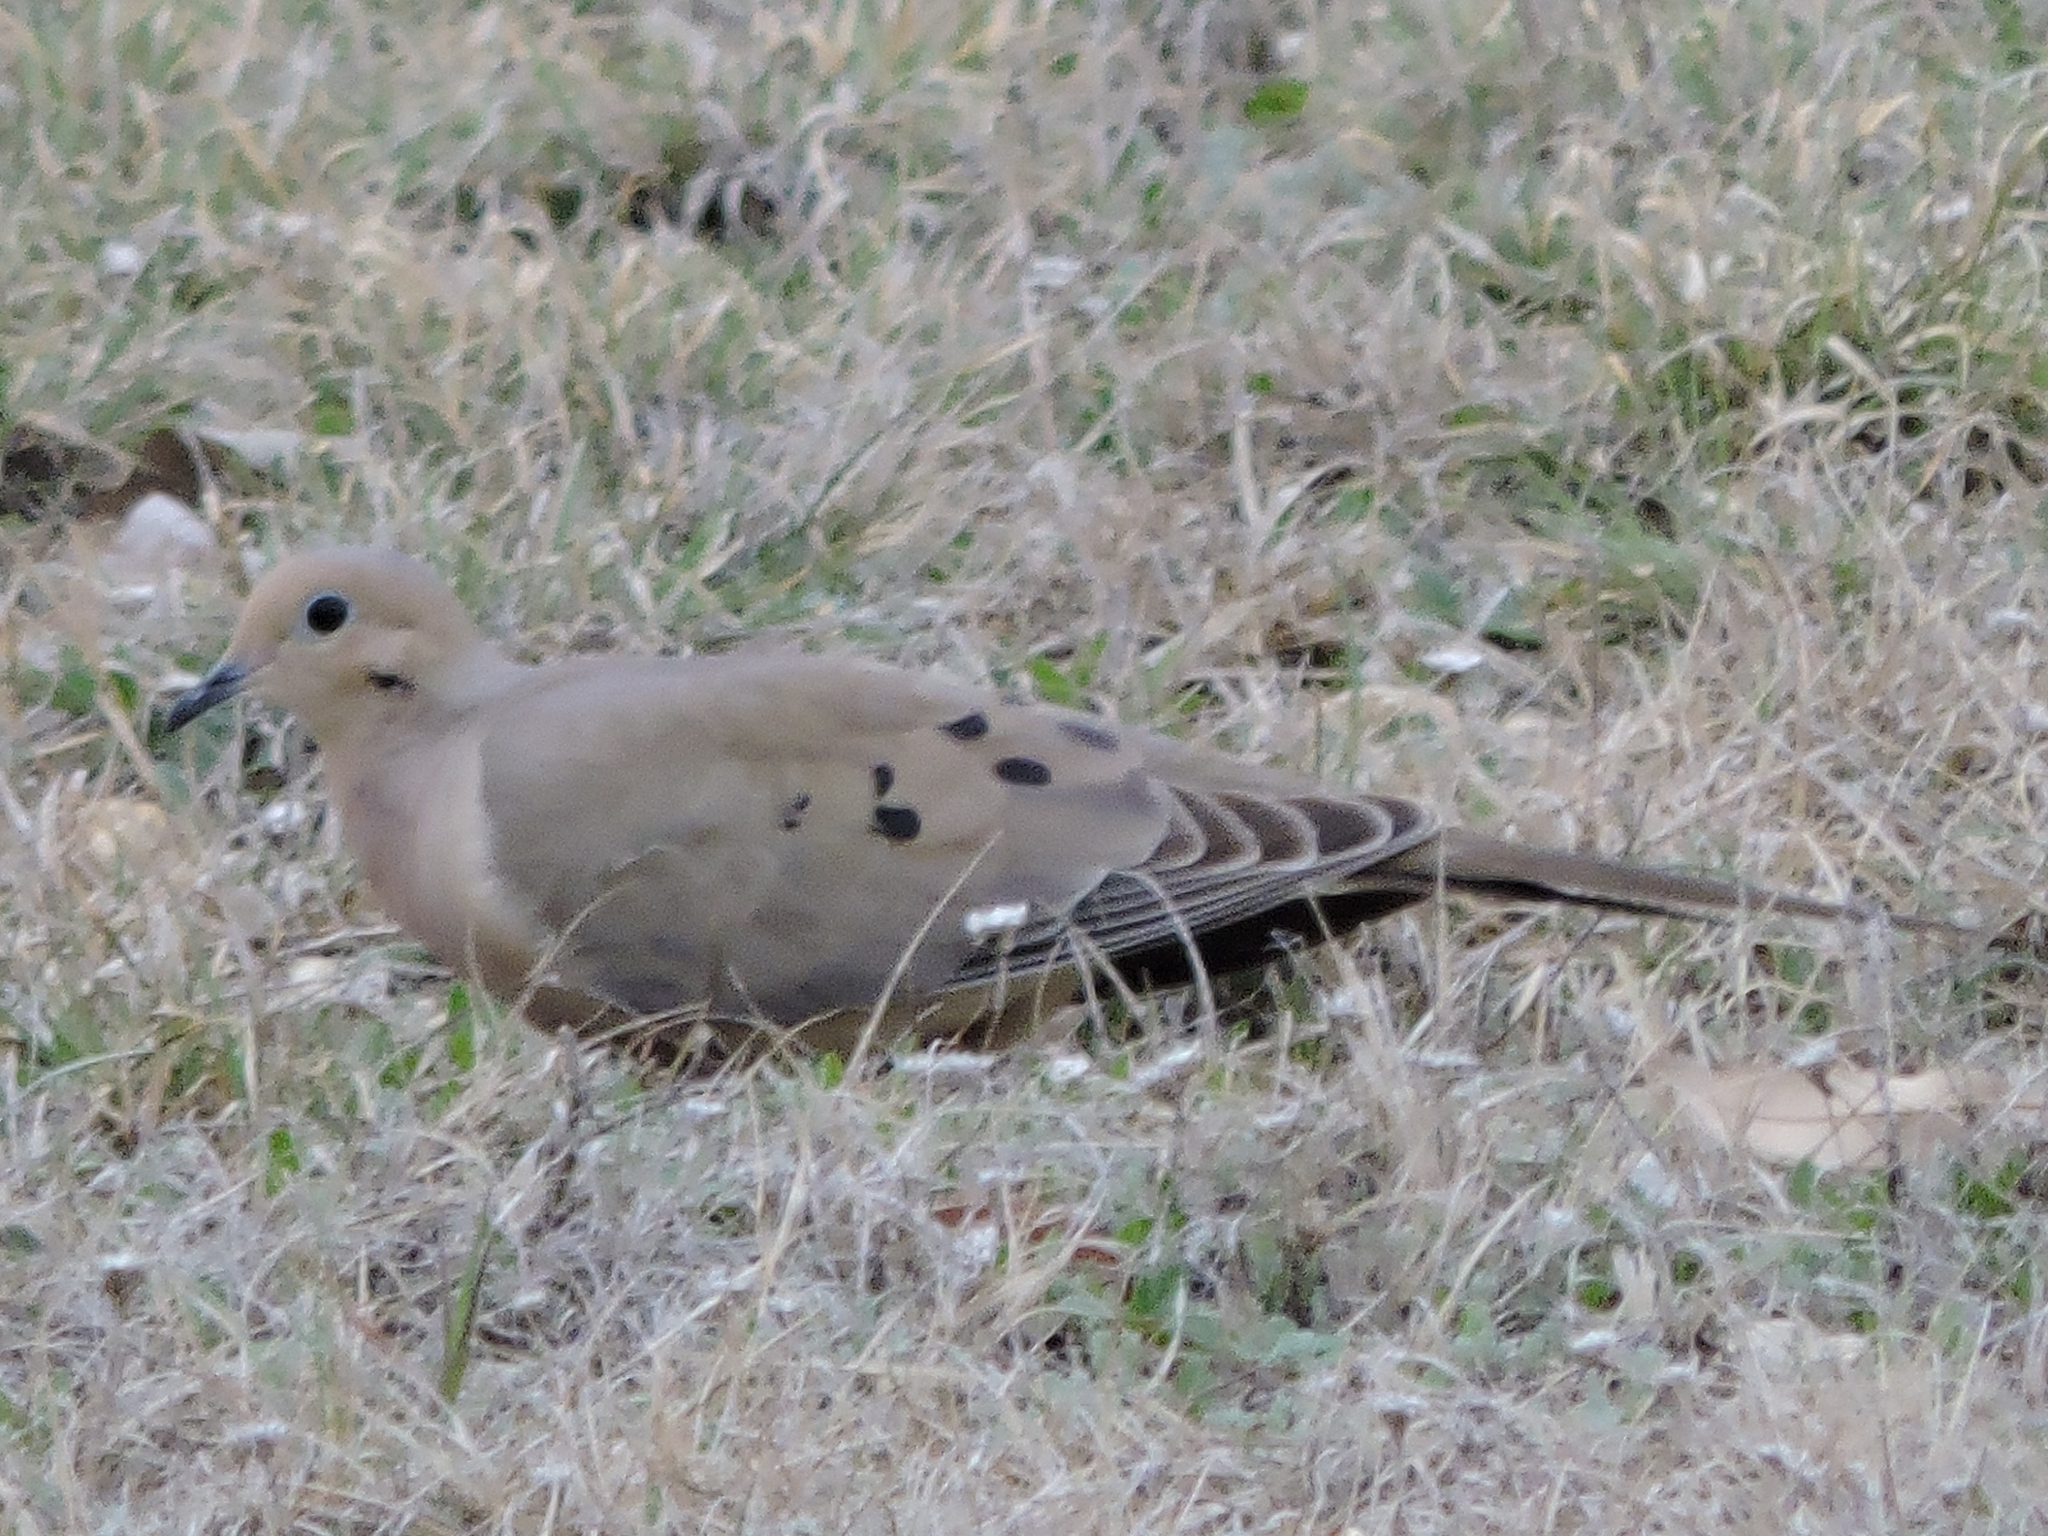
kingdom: Animalia
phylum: Chordata
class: Aves
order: Columbiformes
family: Columbidae
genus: Zenaida
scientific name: Zenaida macroura
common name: Mourning dove
